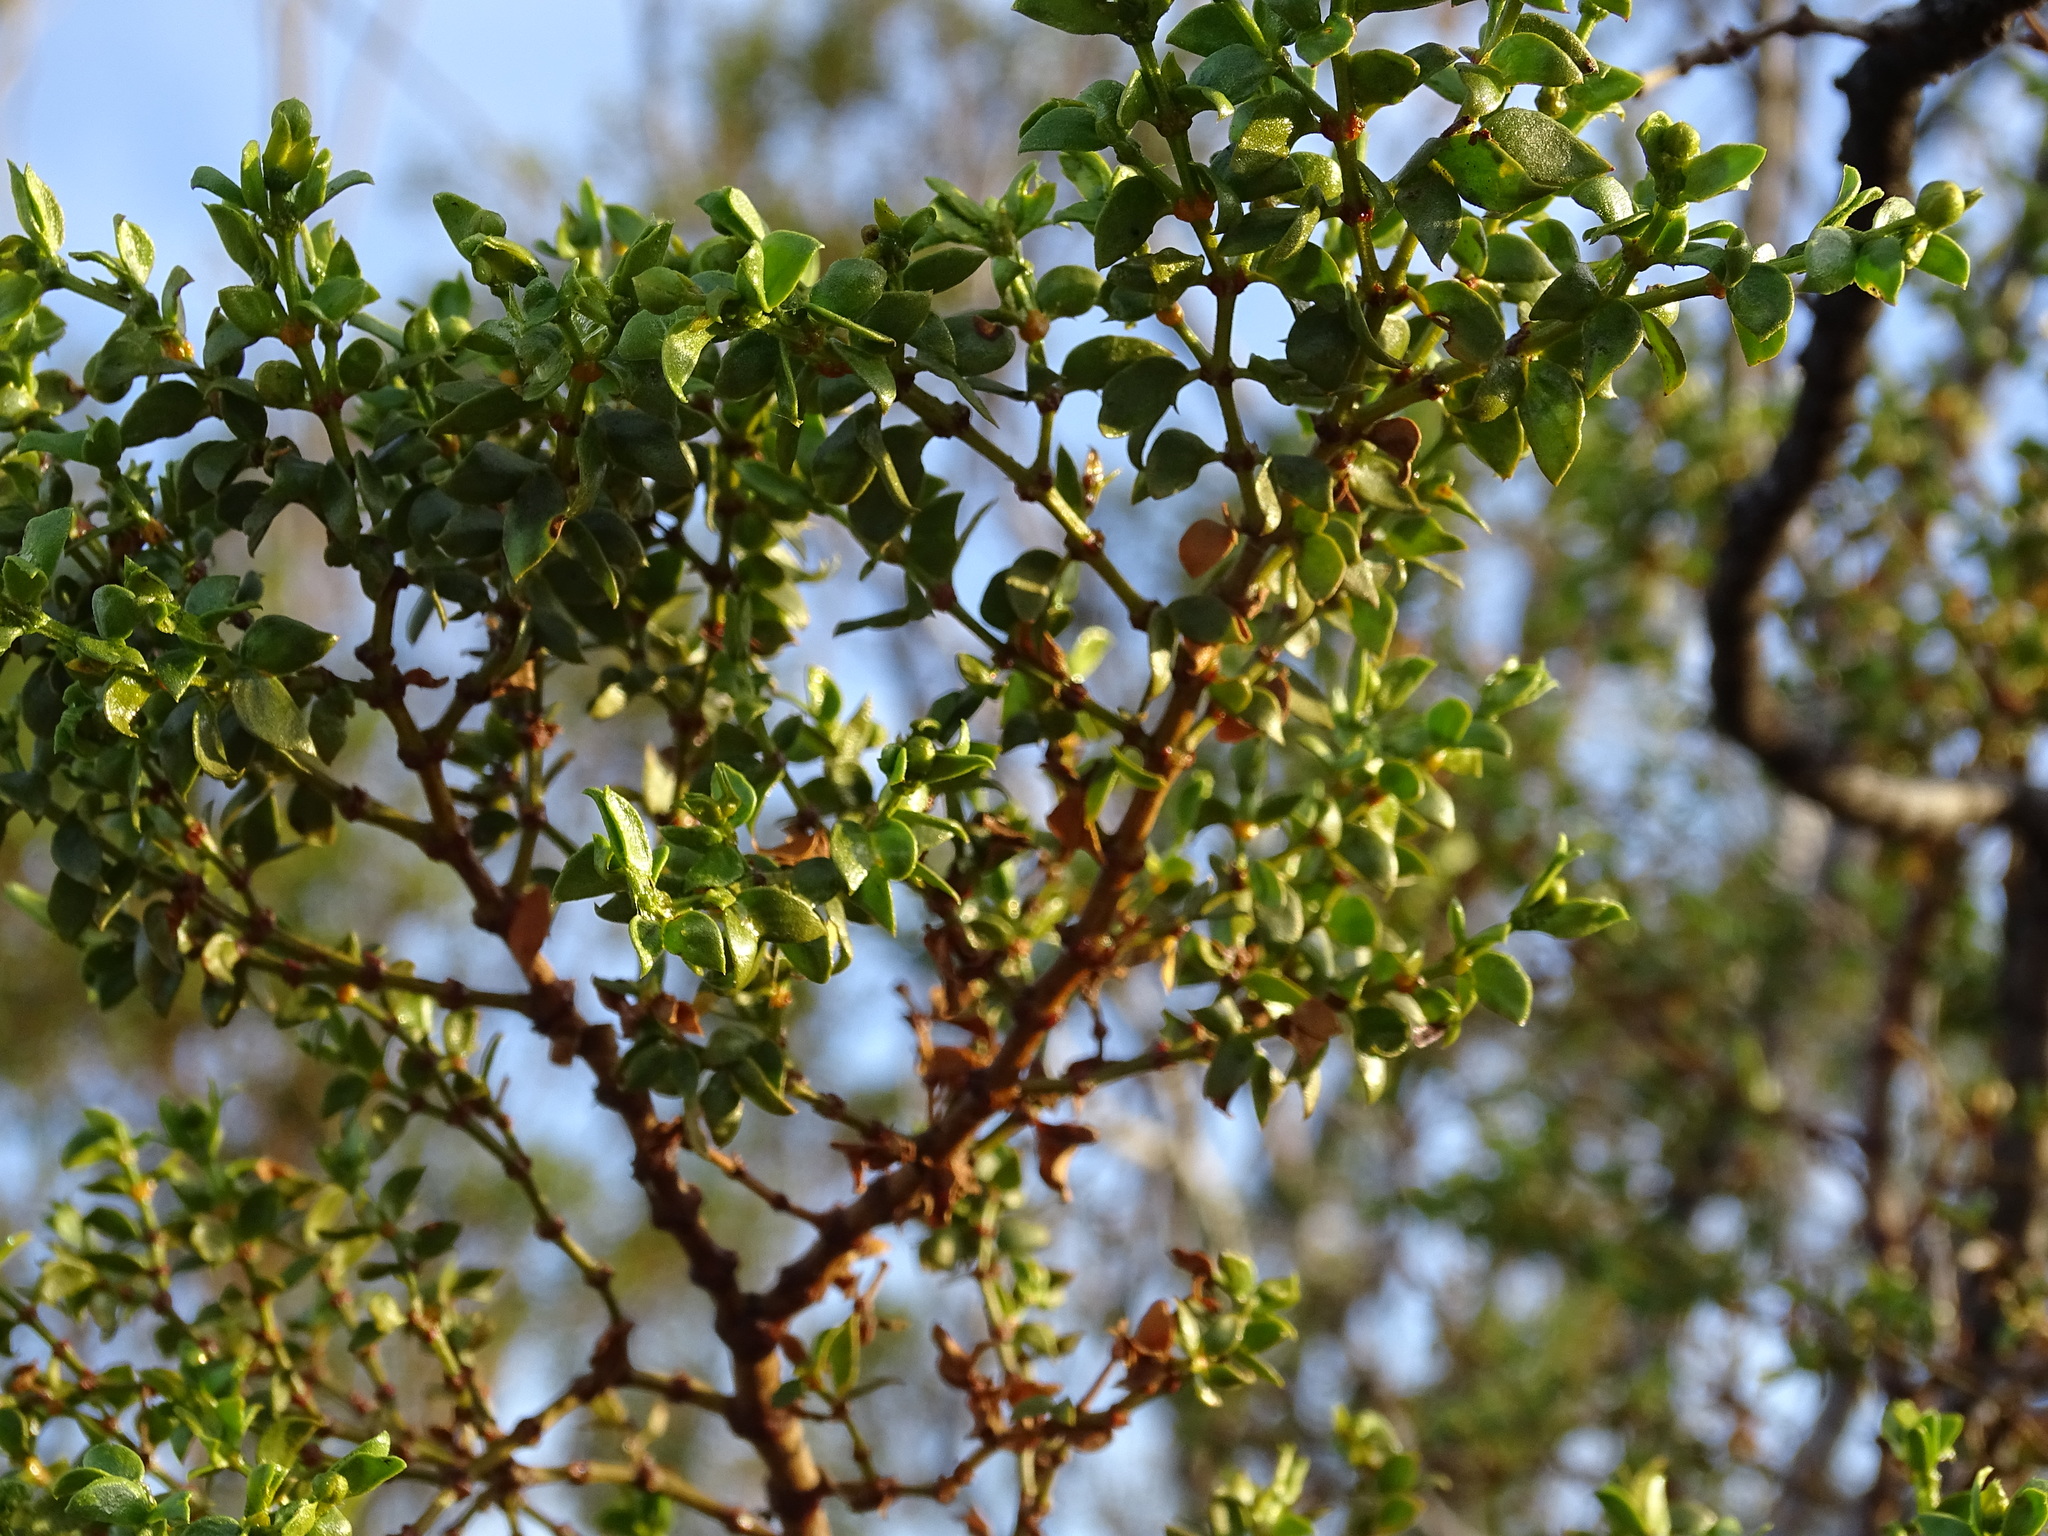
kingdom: Plantae
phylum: Tracheophyta
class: Magnoliopsida
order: Zygophyllales
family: Zygophyllaceae
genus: Larrea
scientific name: Larrea tridentata
